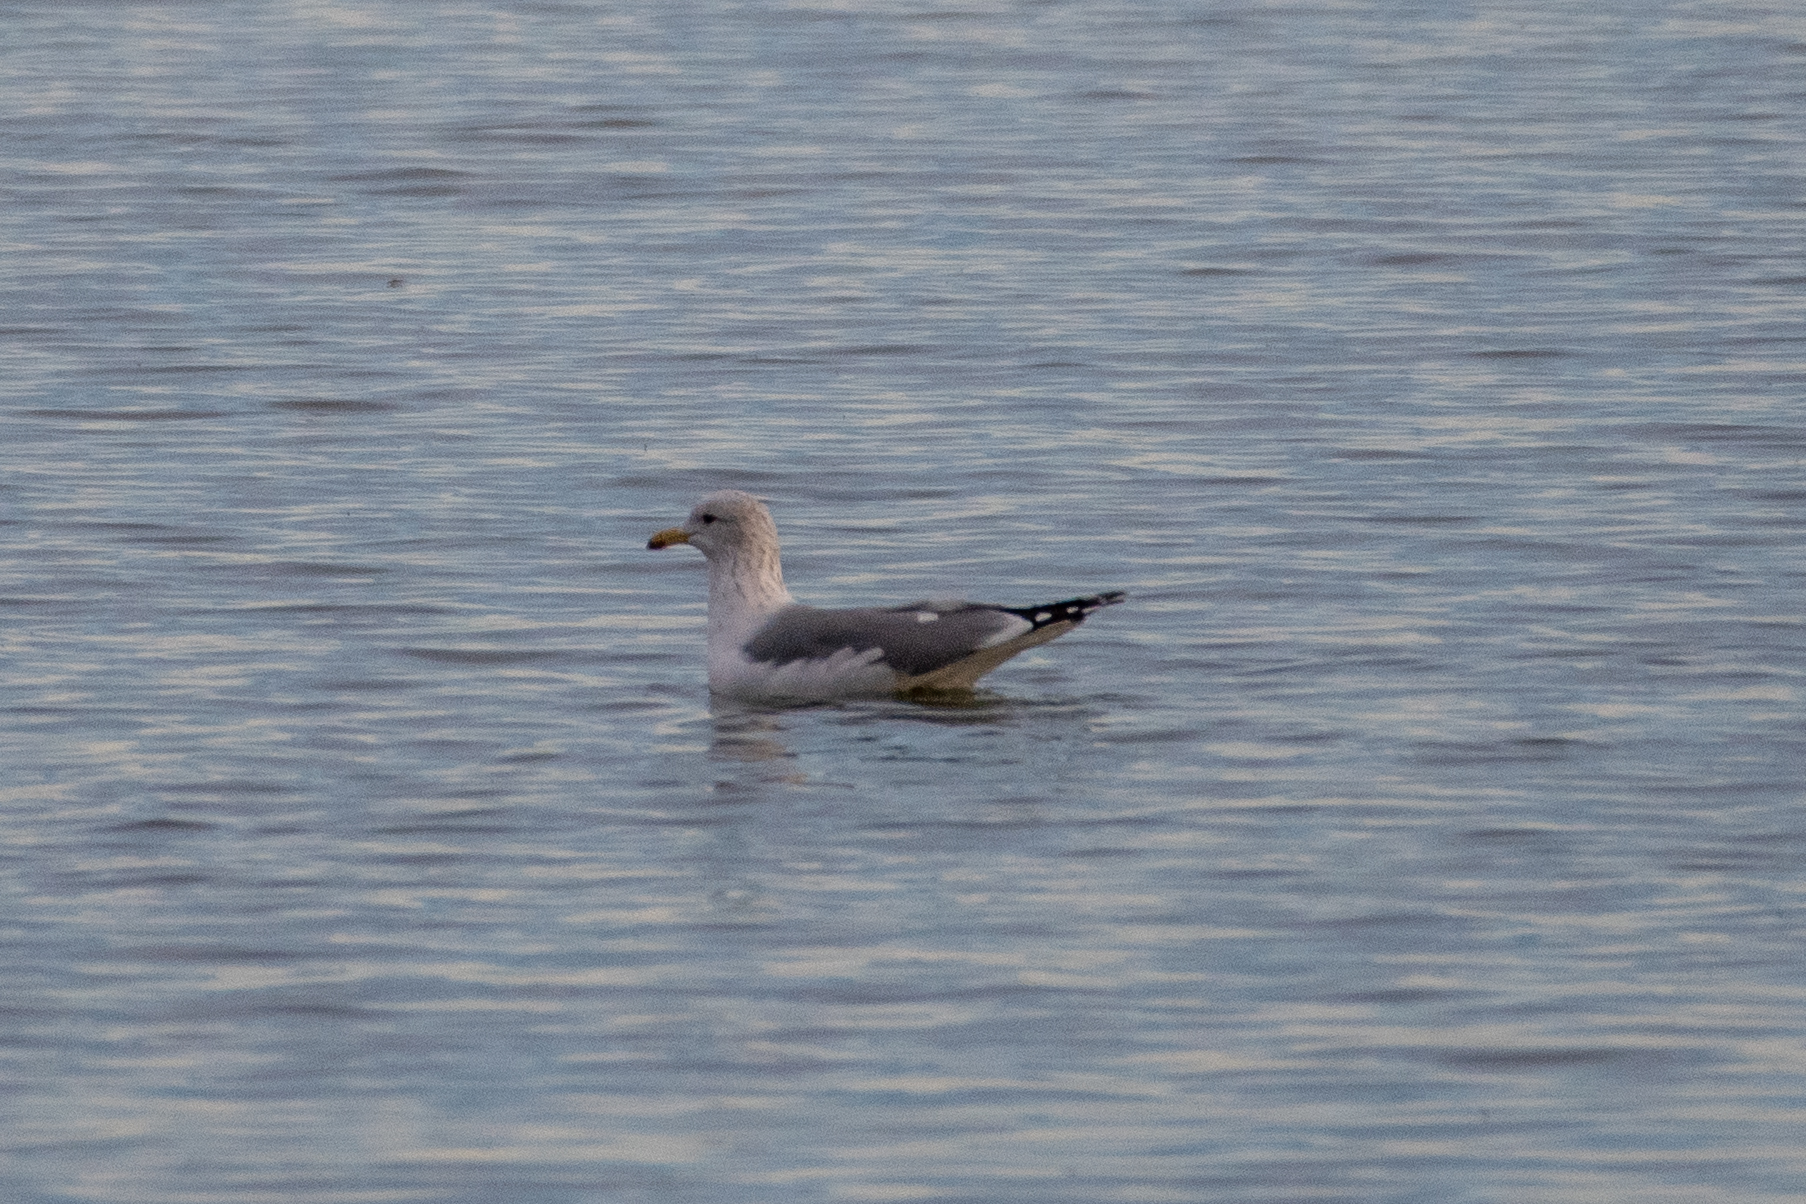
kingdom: Animalia
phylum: Chordata
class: Aves
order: Charadriiformes
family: Laridae
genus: Larus
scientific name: Larus californicus
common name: California gull
